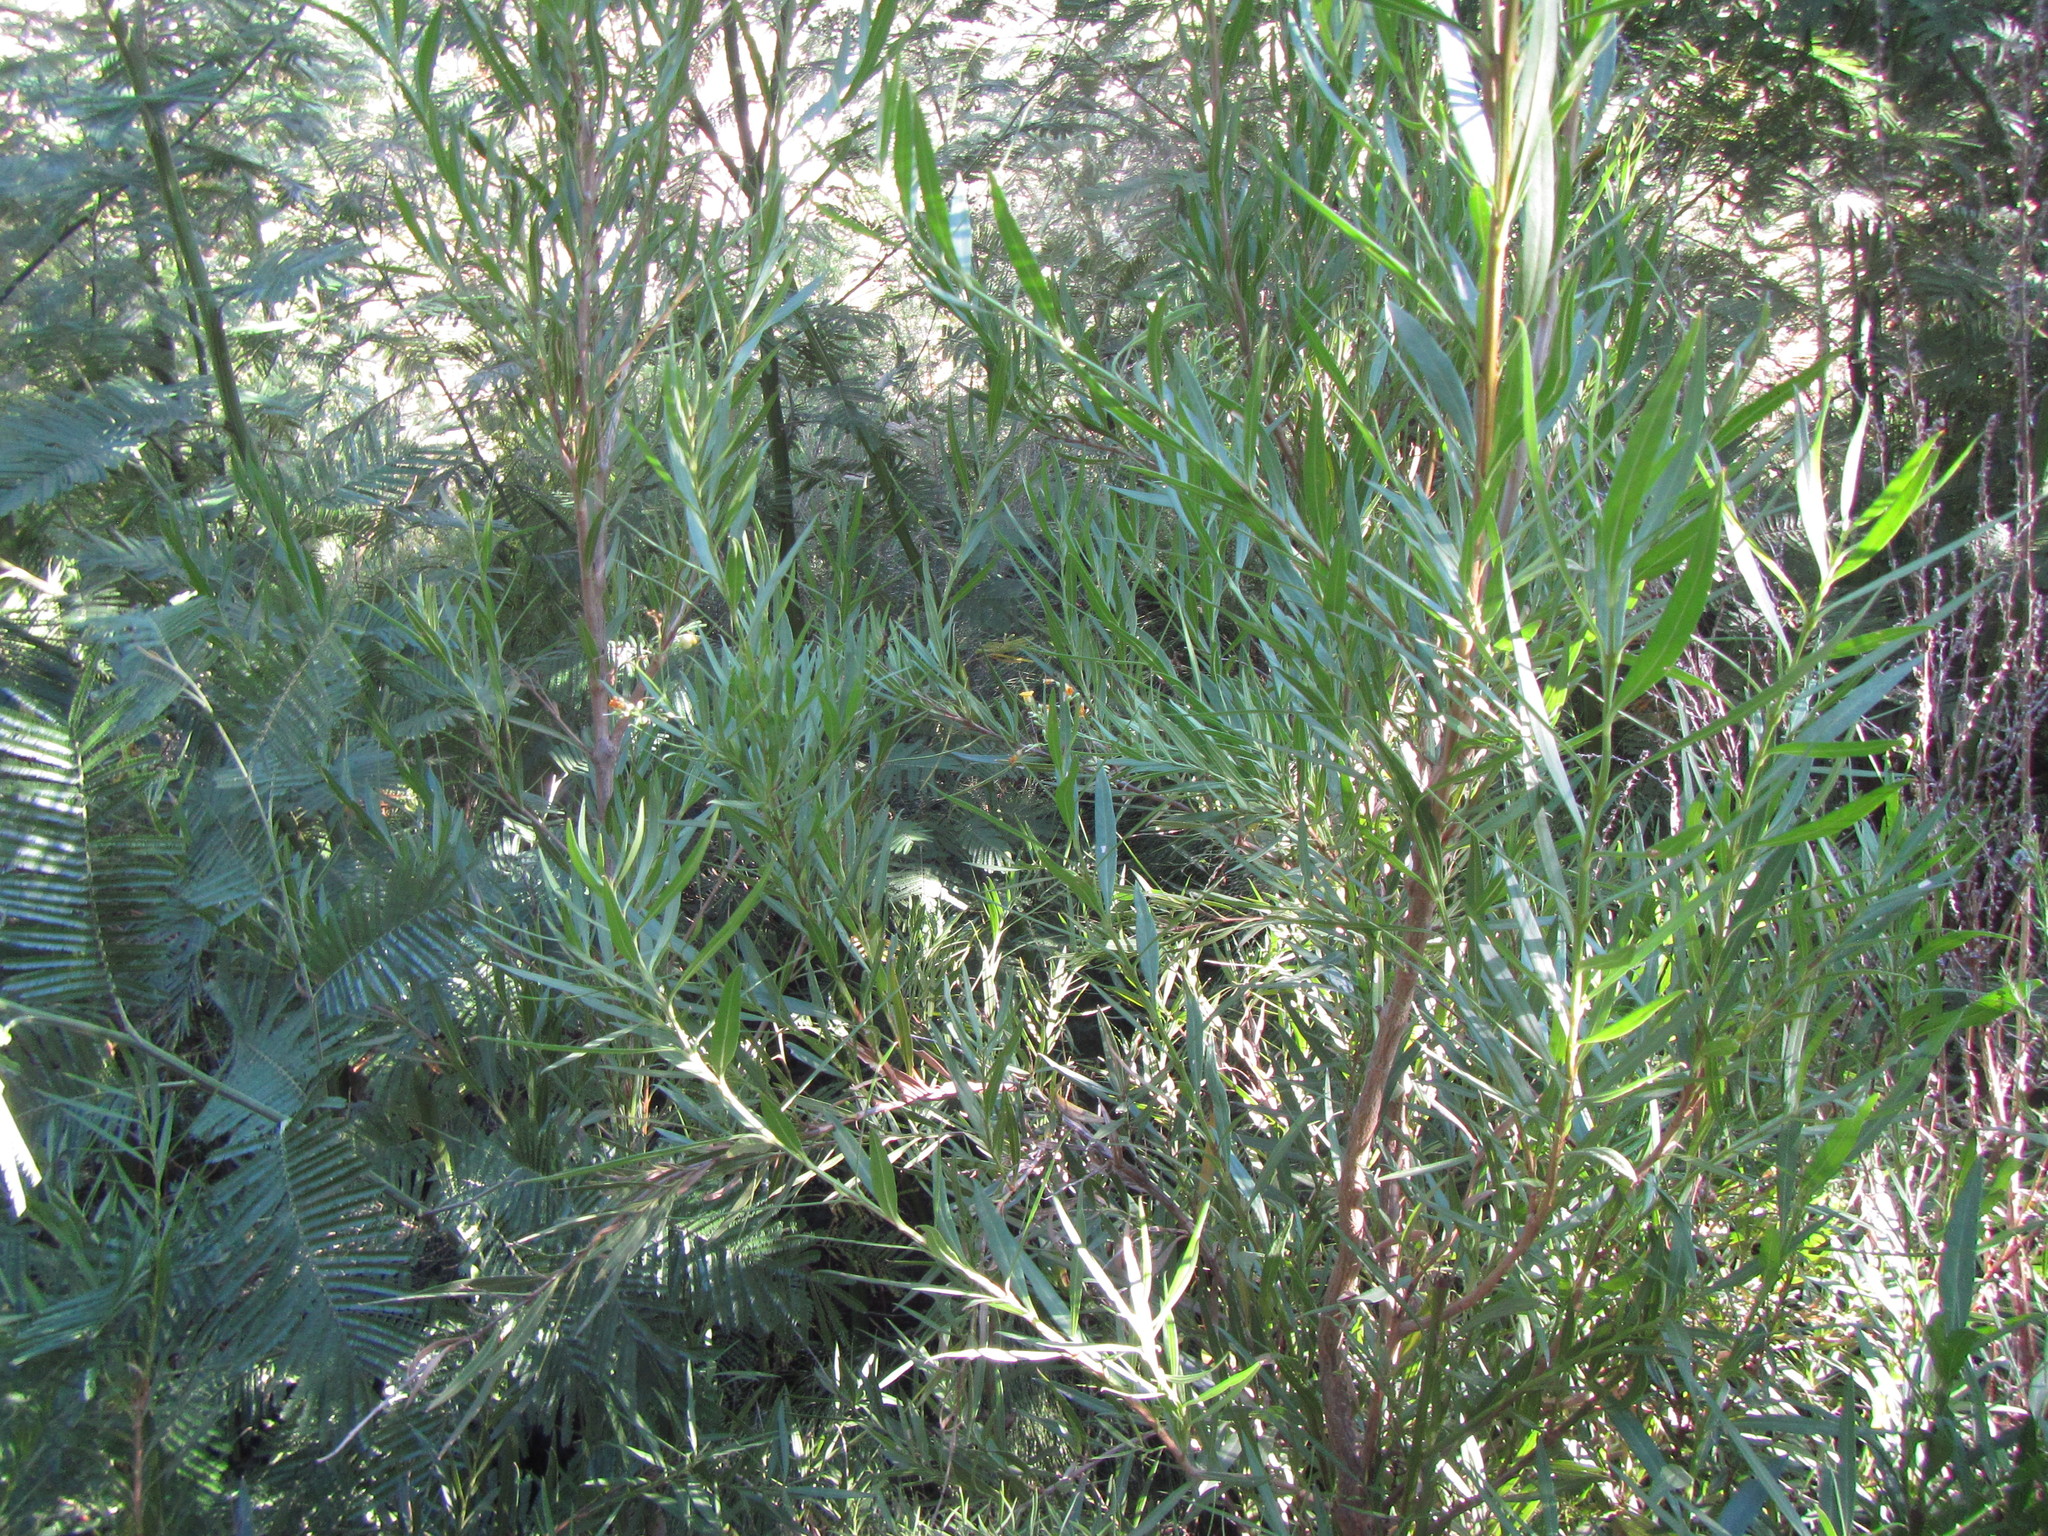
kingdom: Plantae
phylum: Tracheophyta
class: Magnoliopsida
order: Lamiales
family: Scrophulariaceae
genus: Freylinia
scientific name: Freylinia lanceolata
